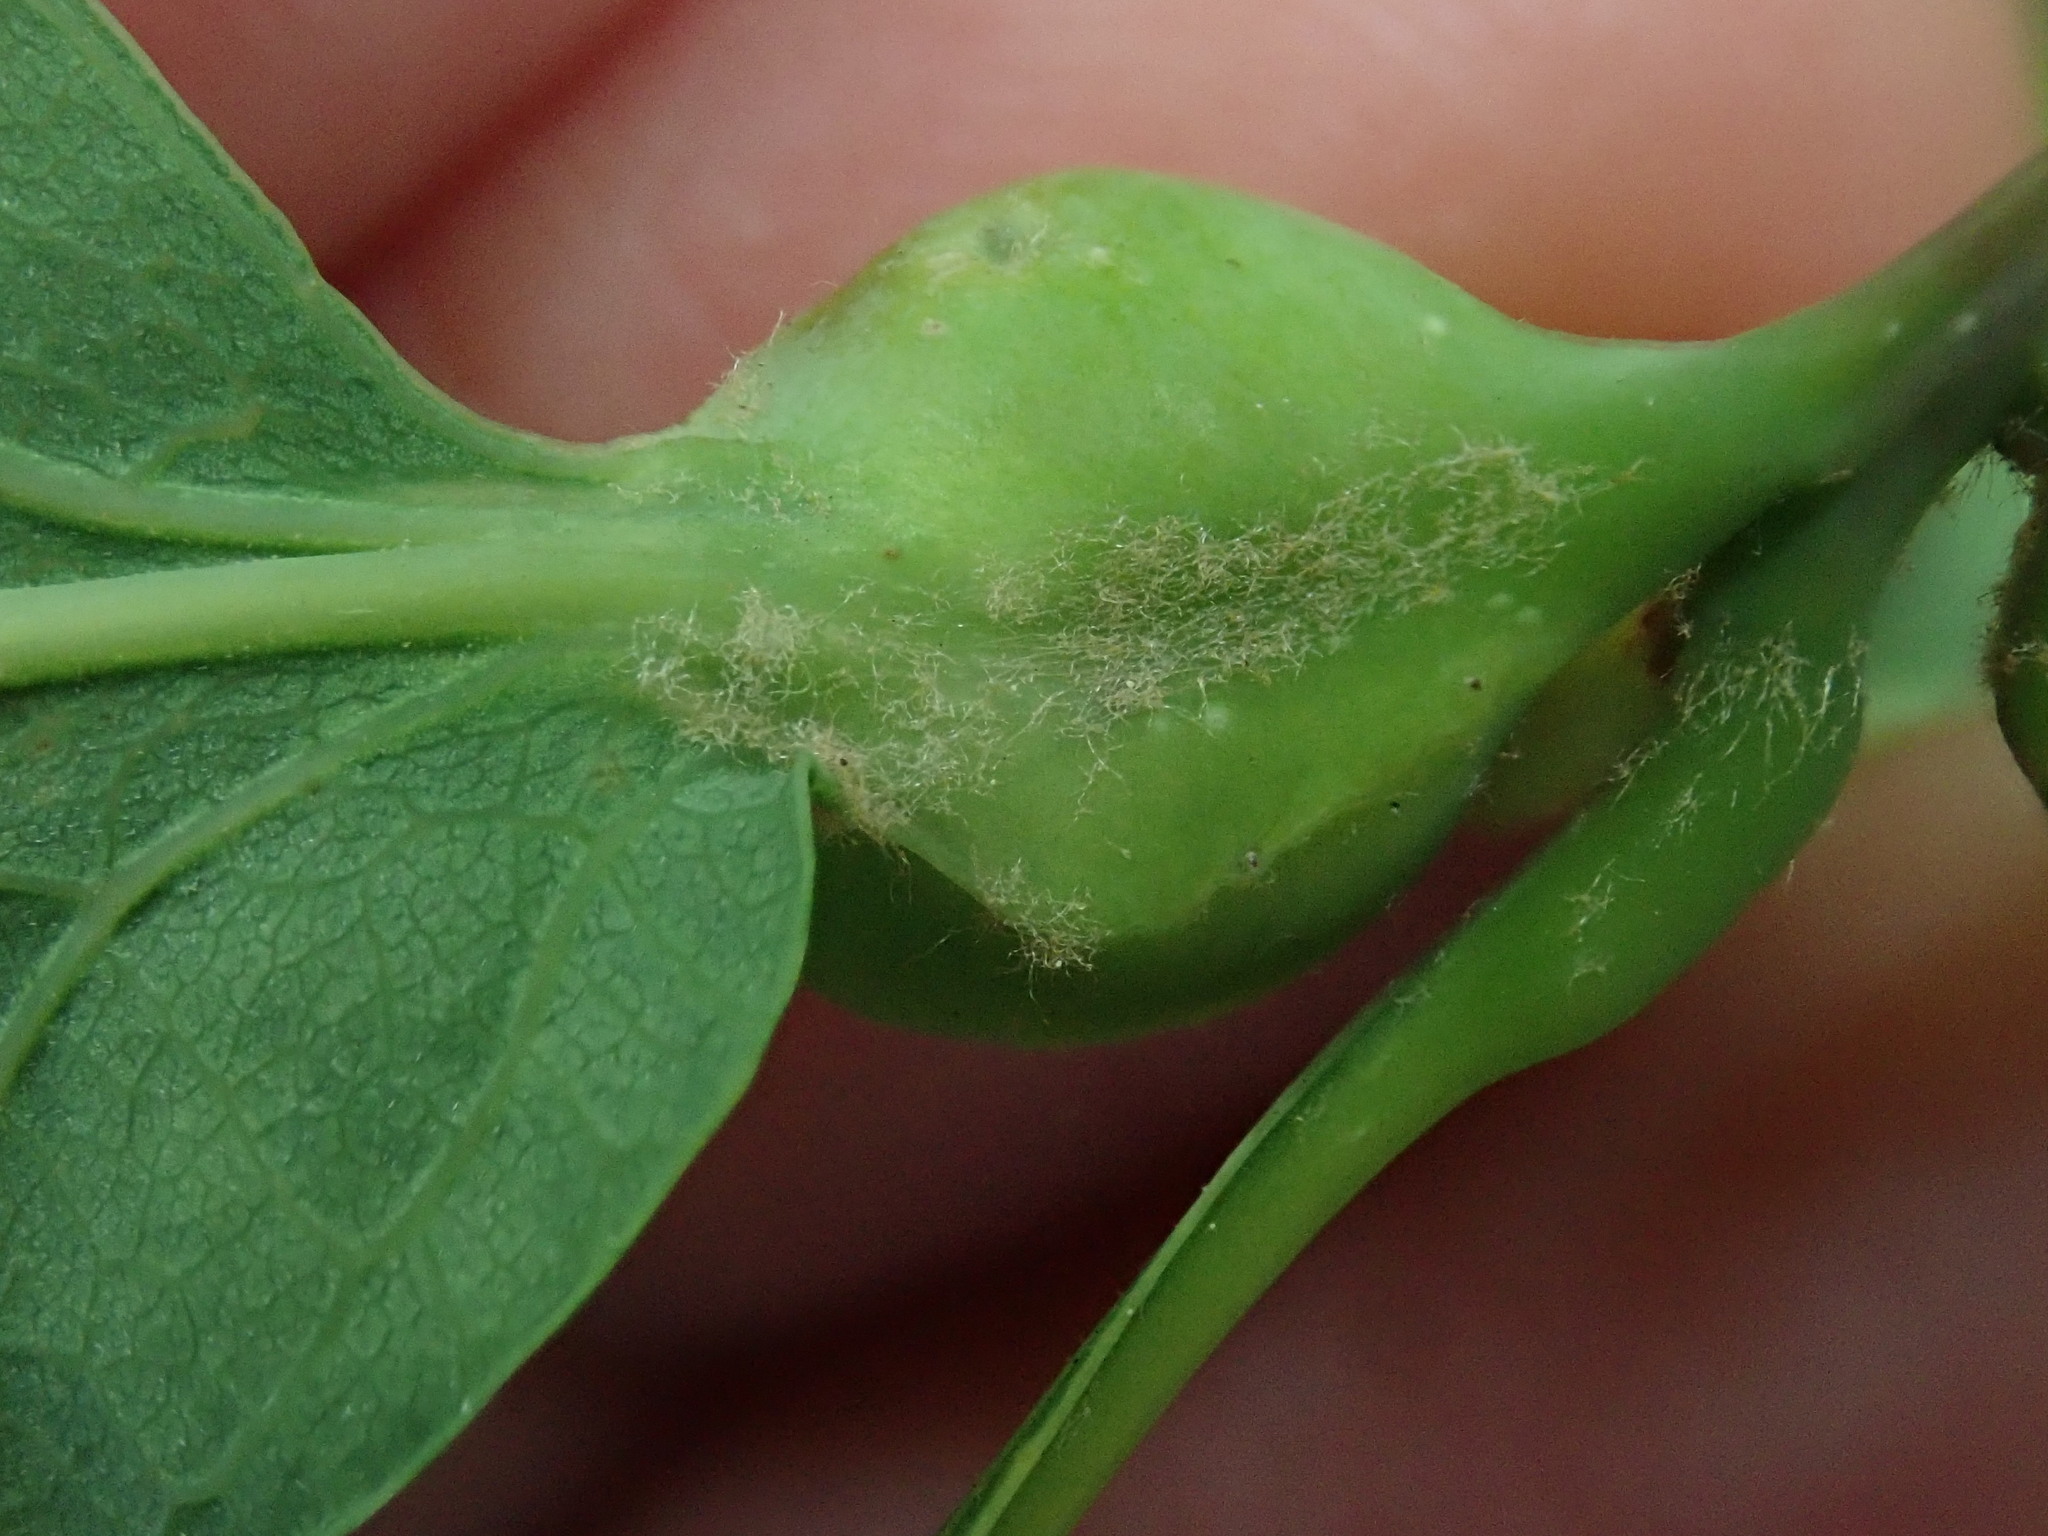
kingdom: Animalia
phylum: Arthropoda
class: Insecta
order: Hymenoptera
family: Cynipidae
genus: Andricus
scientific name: Andricus
